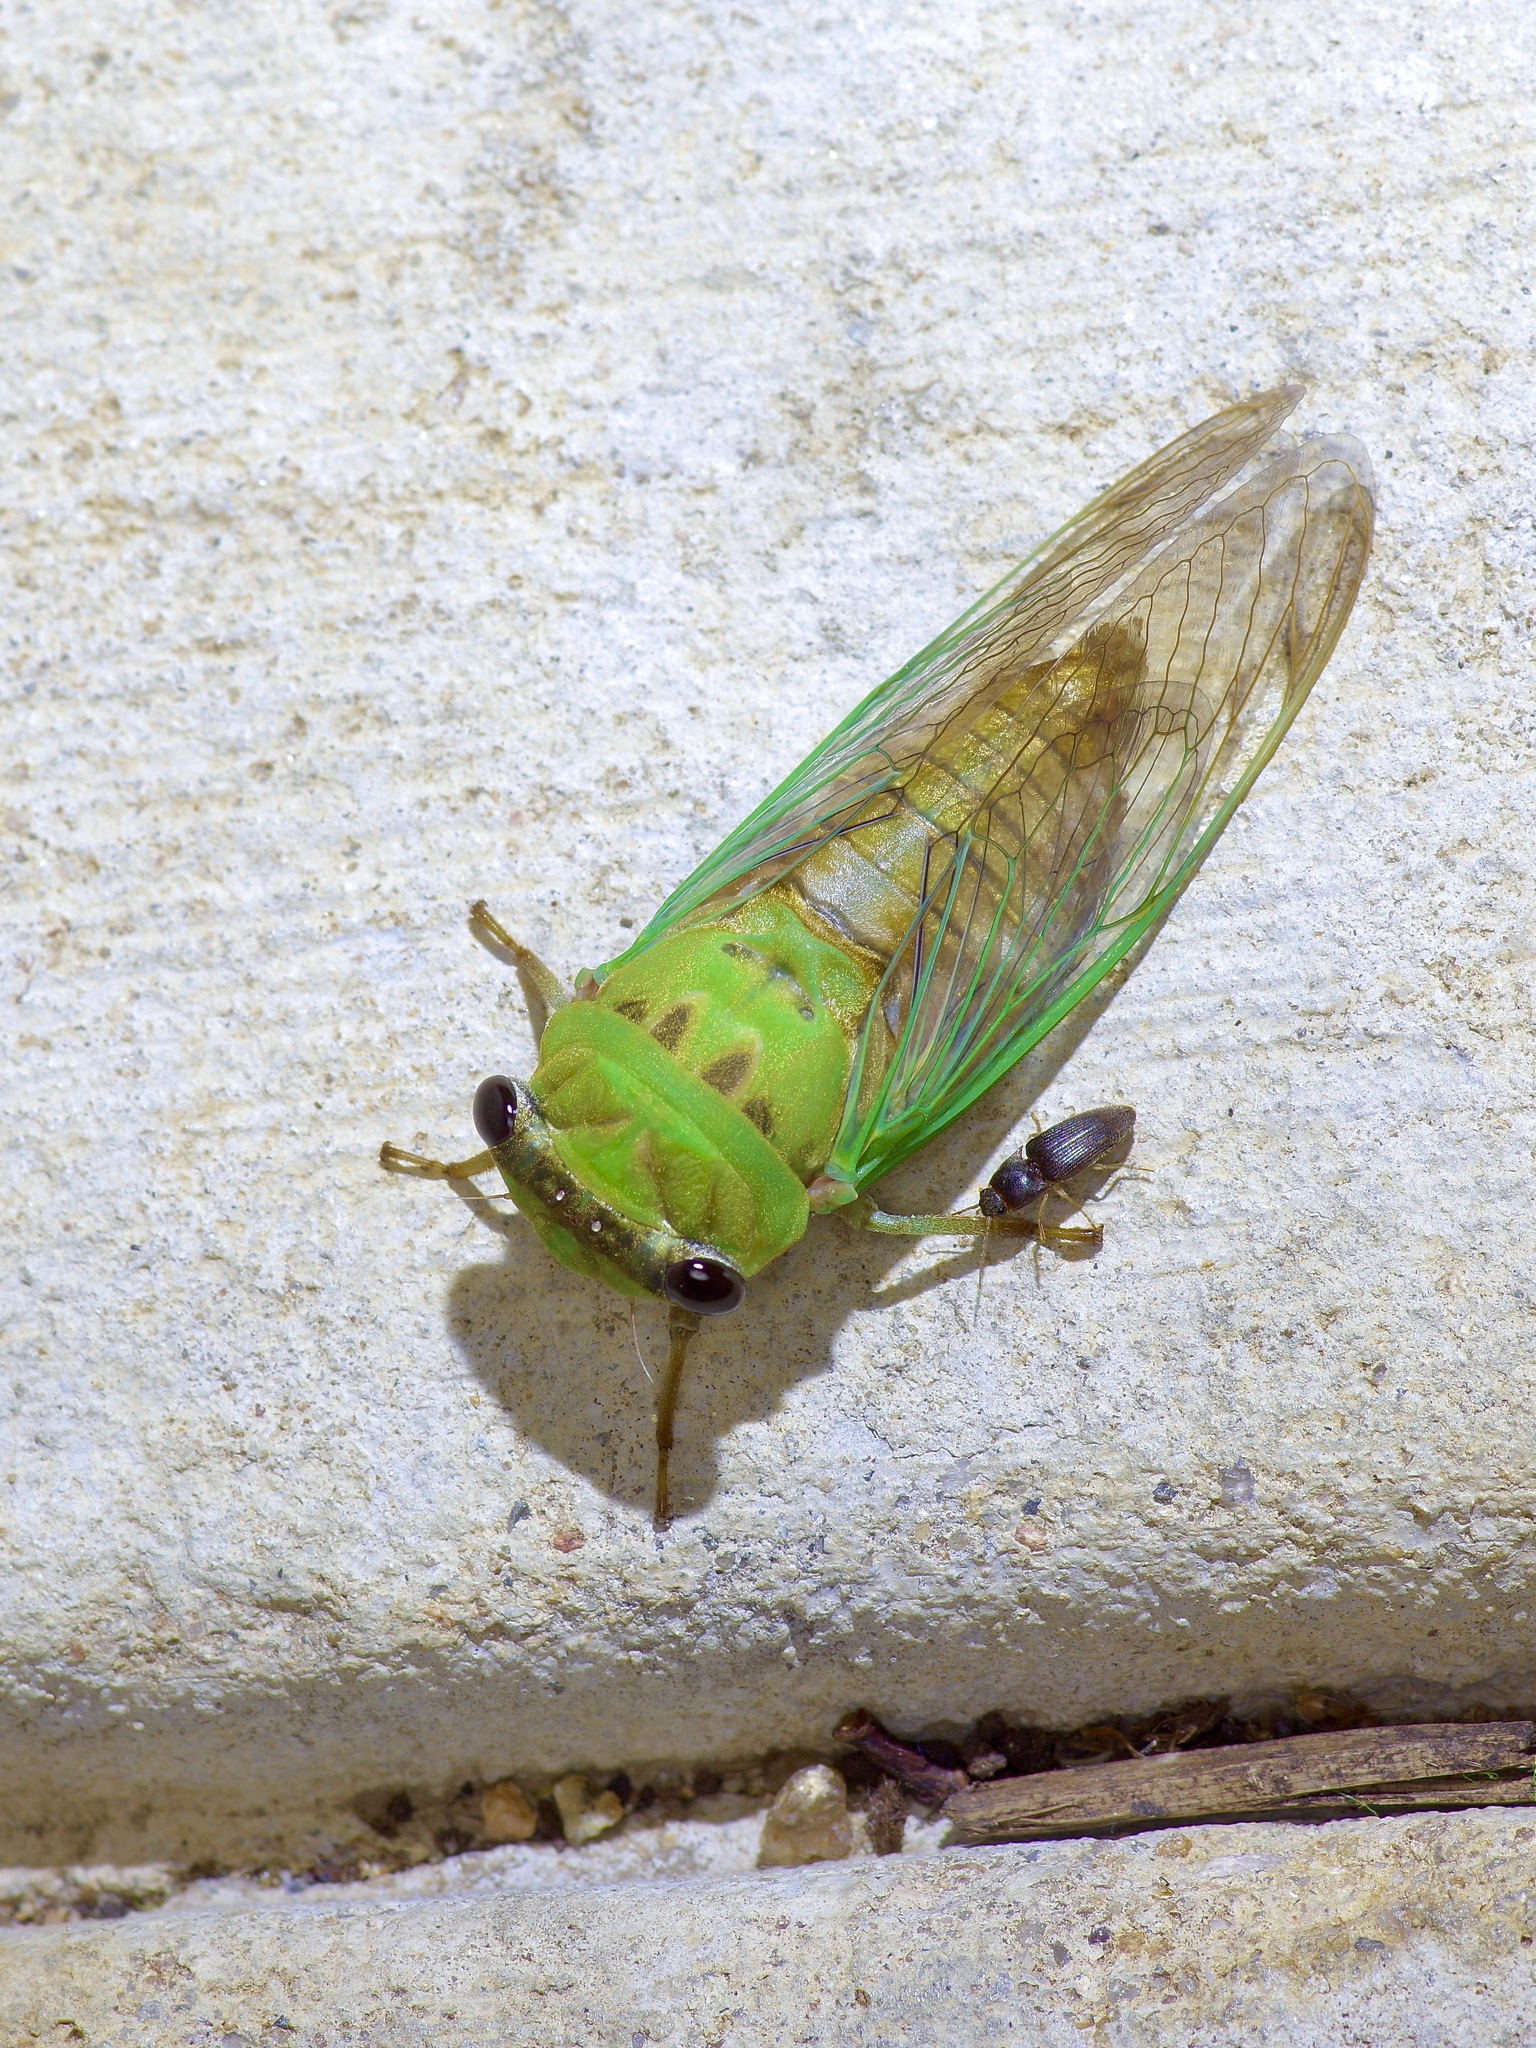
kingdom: Animalia
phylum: Arthropoda
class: Insecta
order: Hemiptera
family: Cicadidae
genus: Neotibicen
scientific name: Neotibicen superbus
